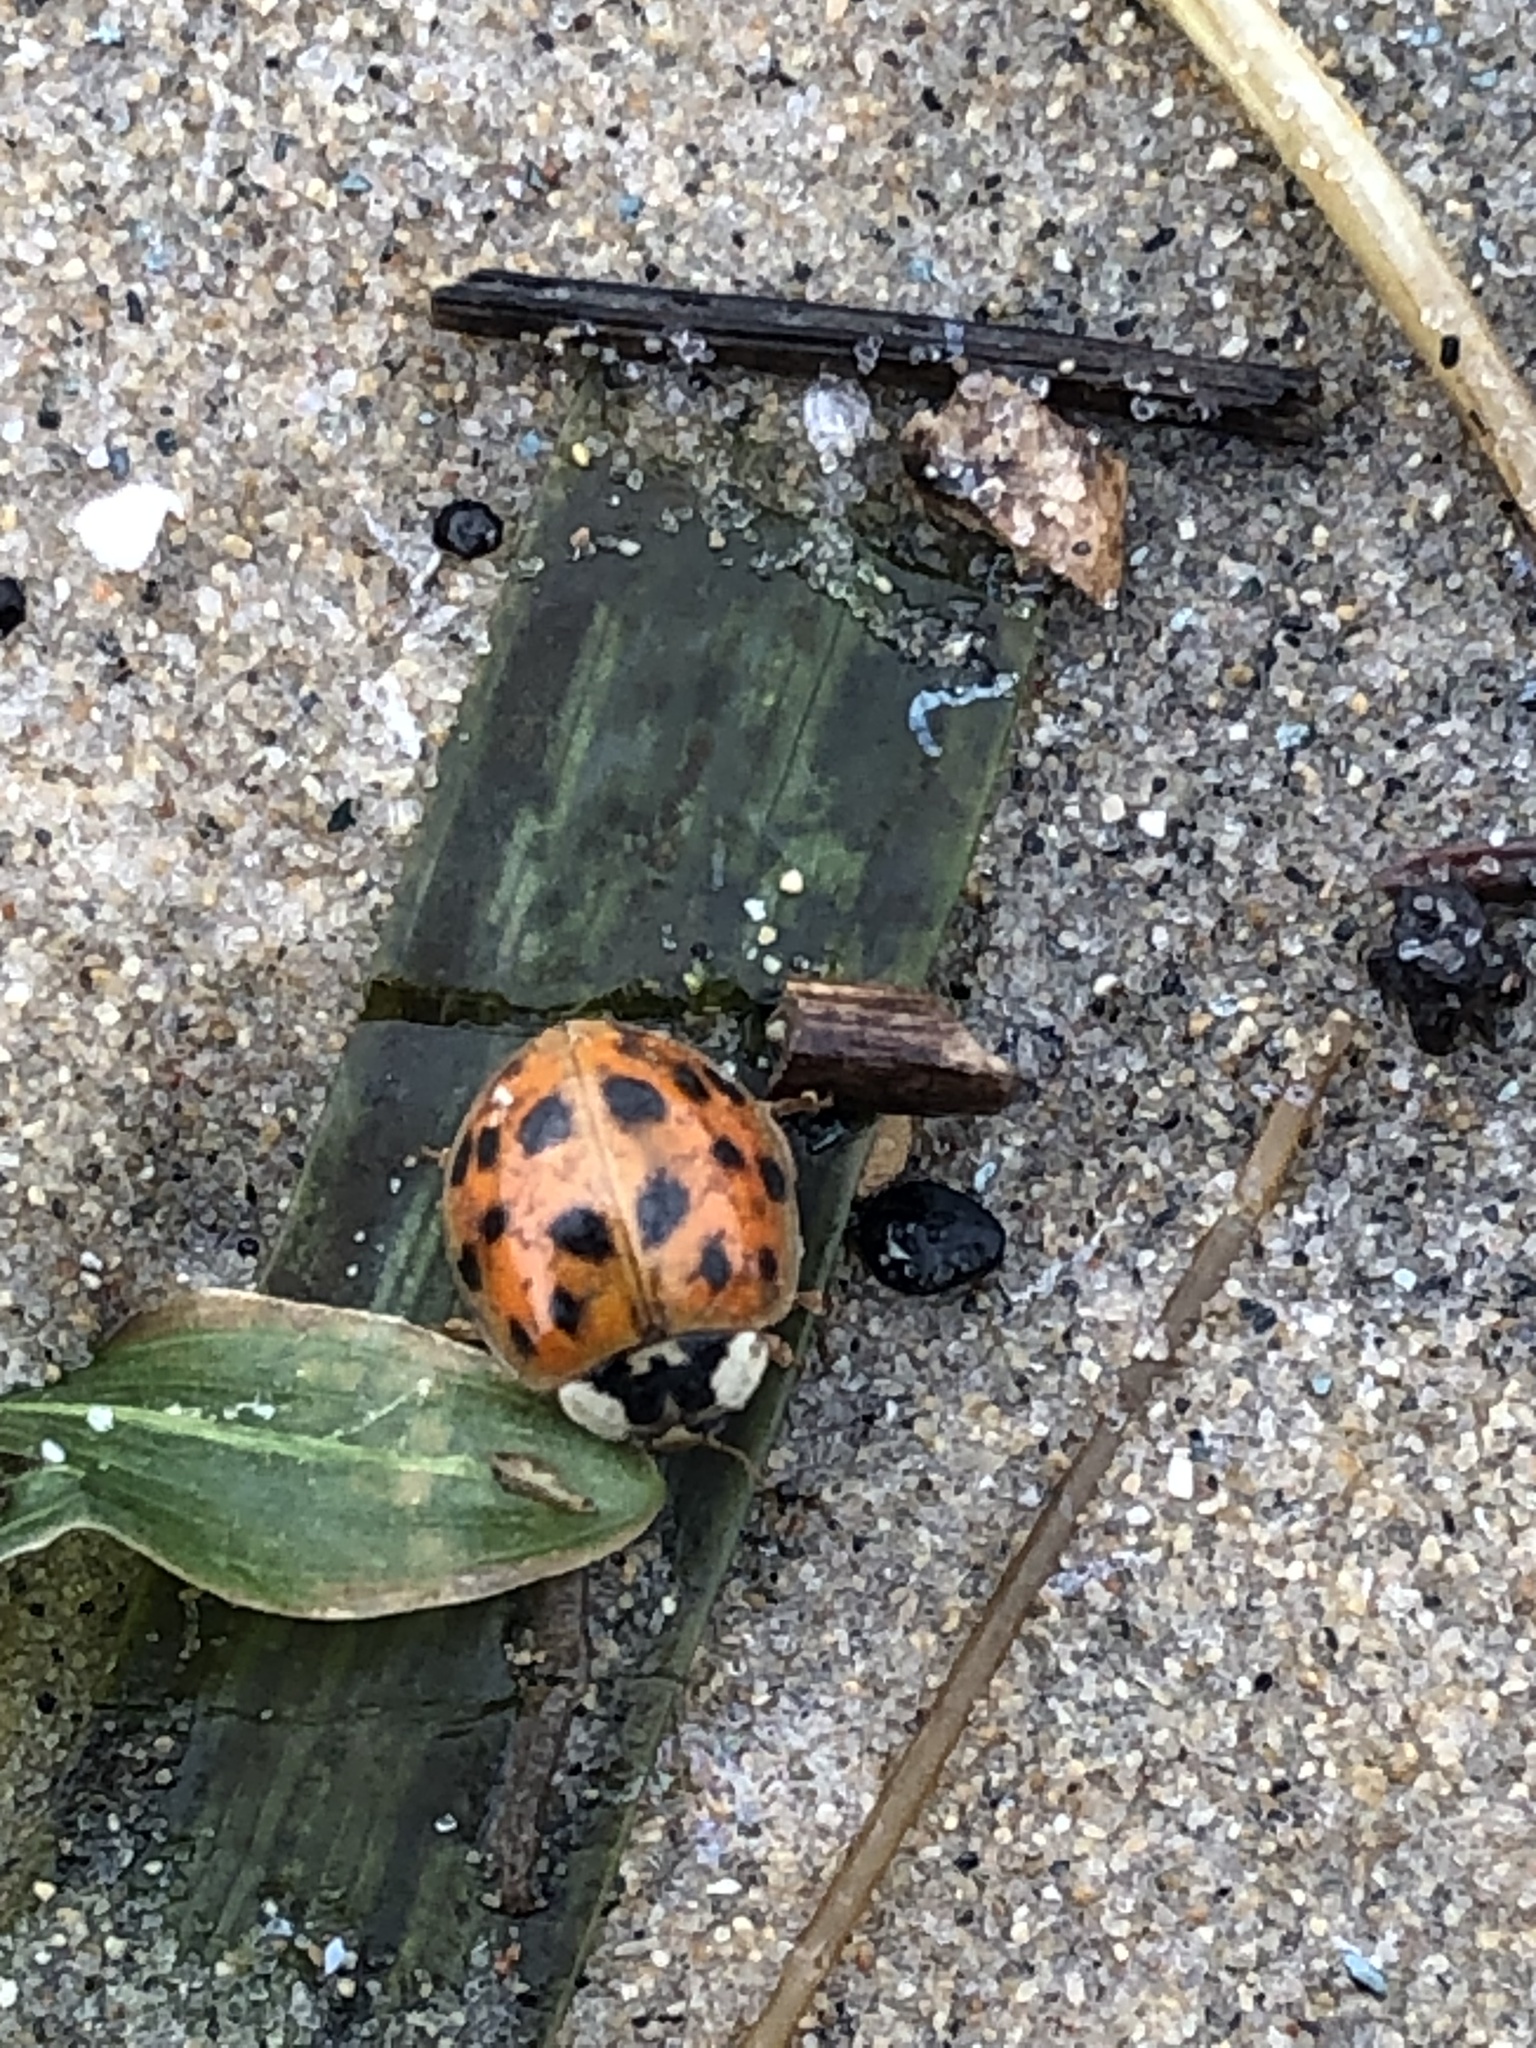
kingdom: Animalia
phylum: Arthropoda
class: Insecta
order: Coleoptera
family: Coccinellidae
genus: Harmonia
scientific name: Harmonia axyridis
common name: Harlequin ladybird
